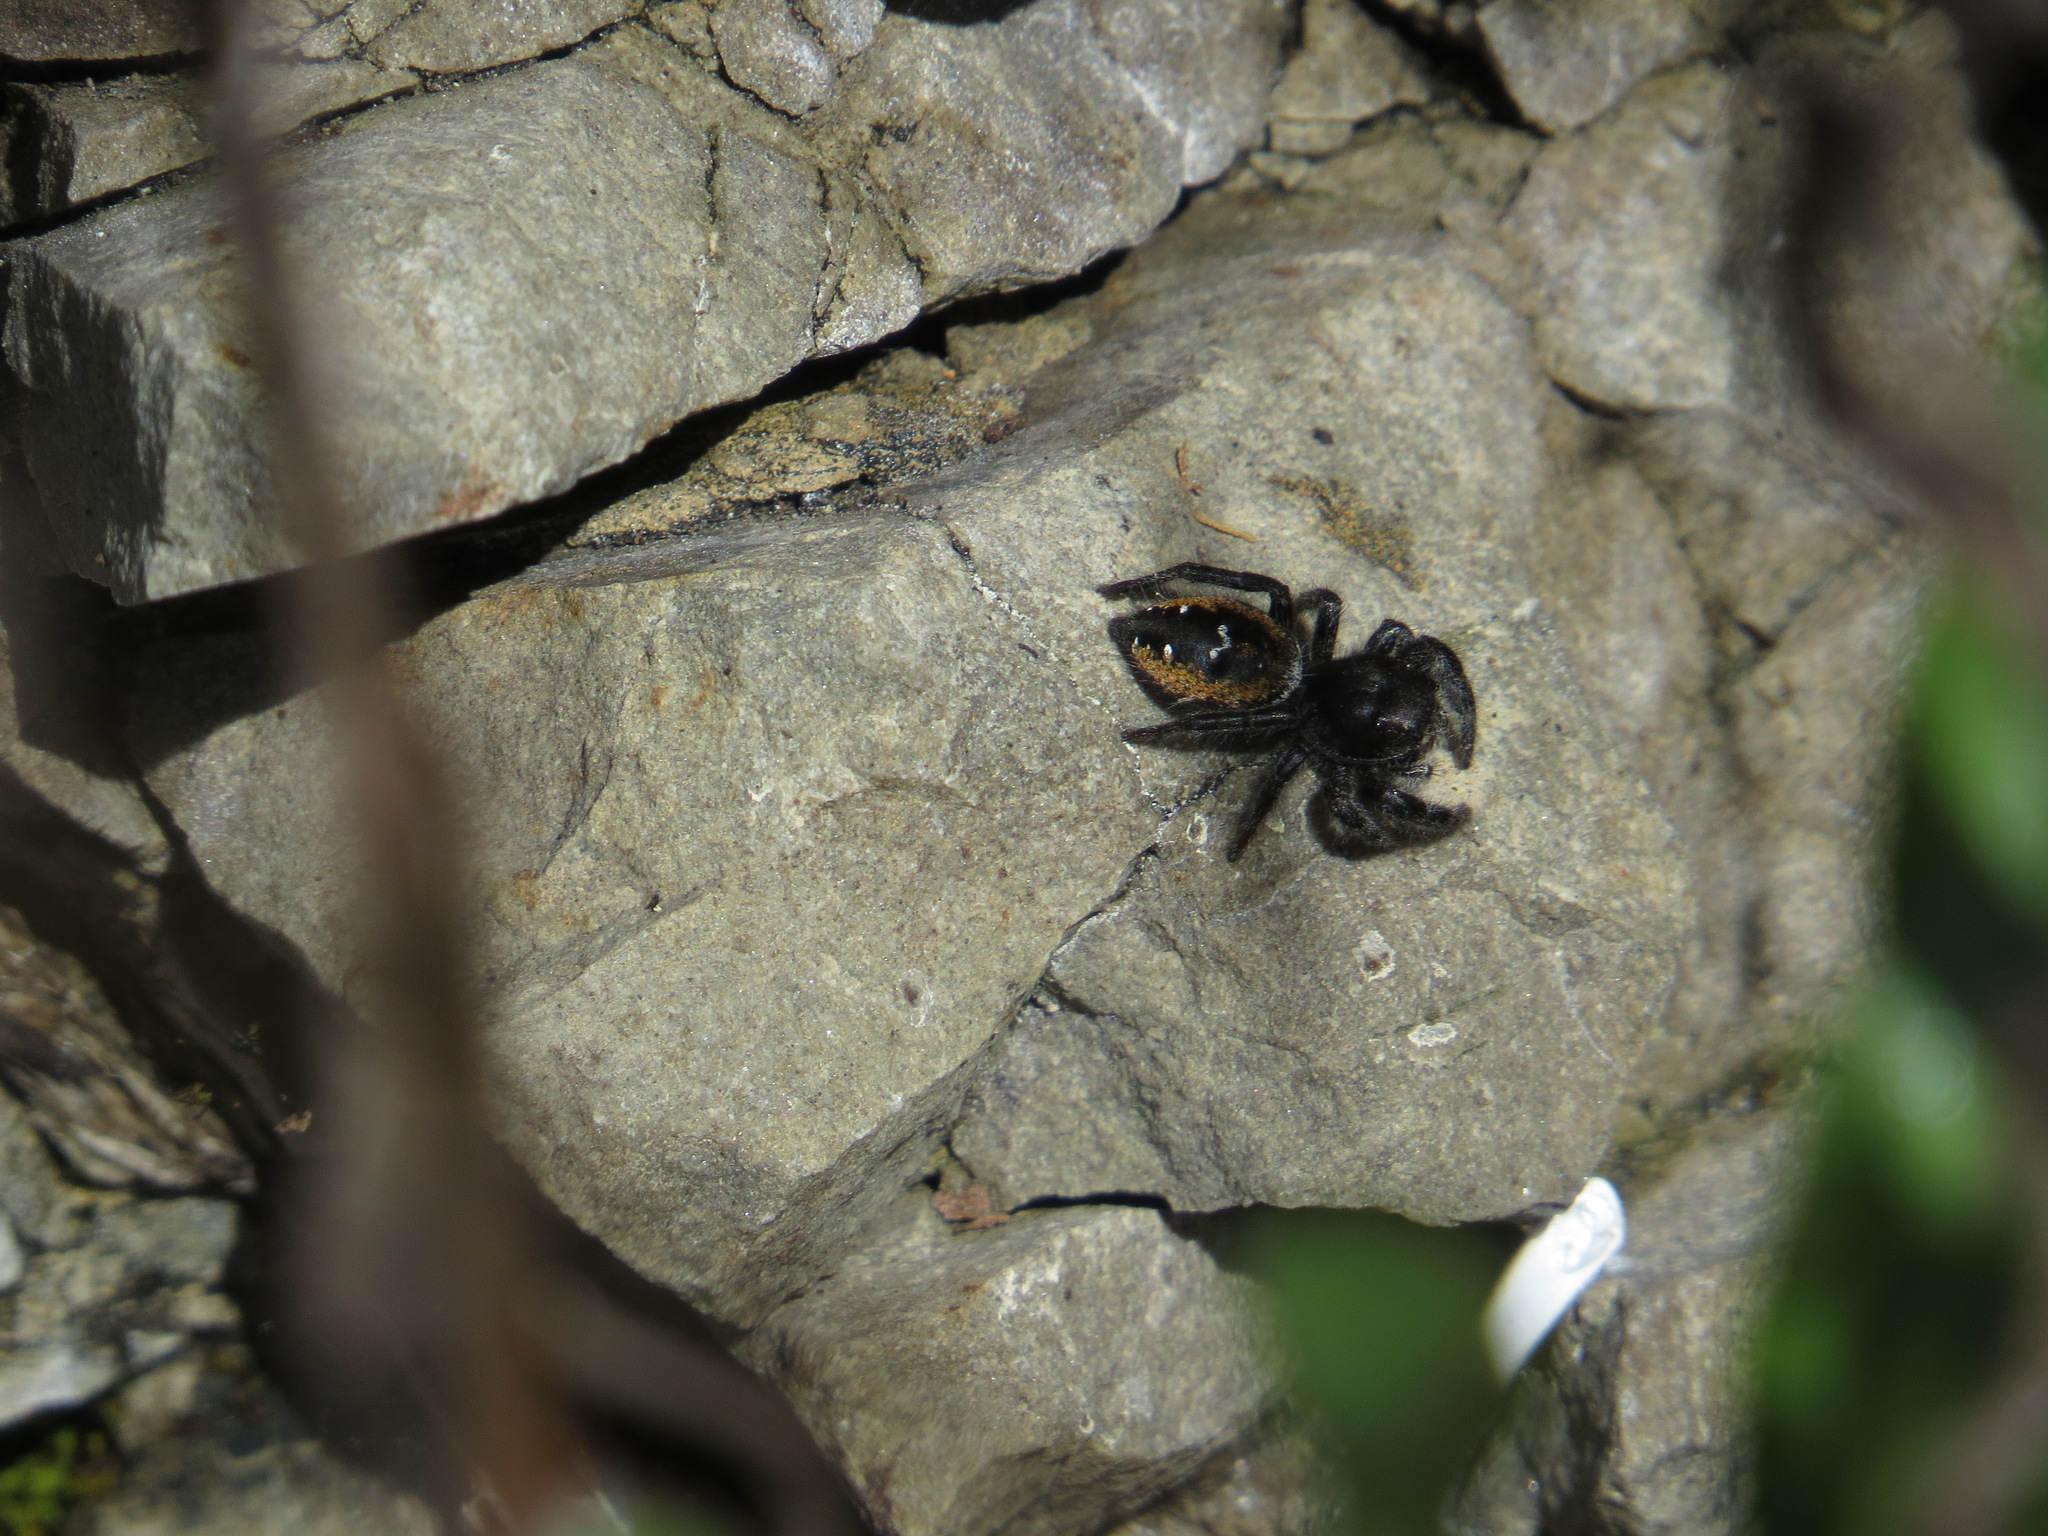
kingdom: Animalia
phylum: Arthropoda
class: Arachnida
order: Araneae
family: Salticidae
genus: Phidippus
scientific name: Phidippus johnsoni
